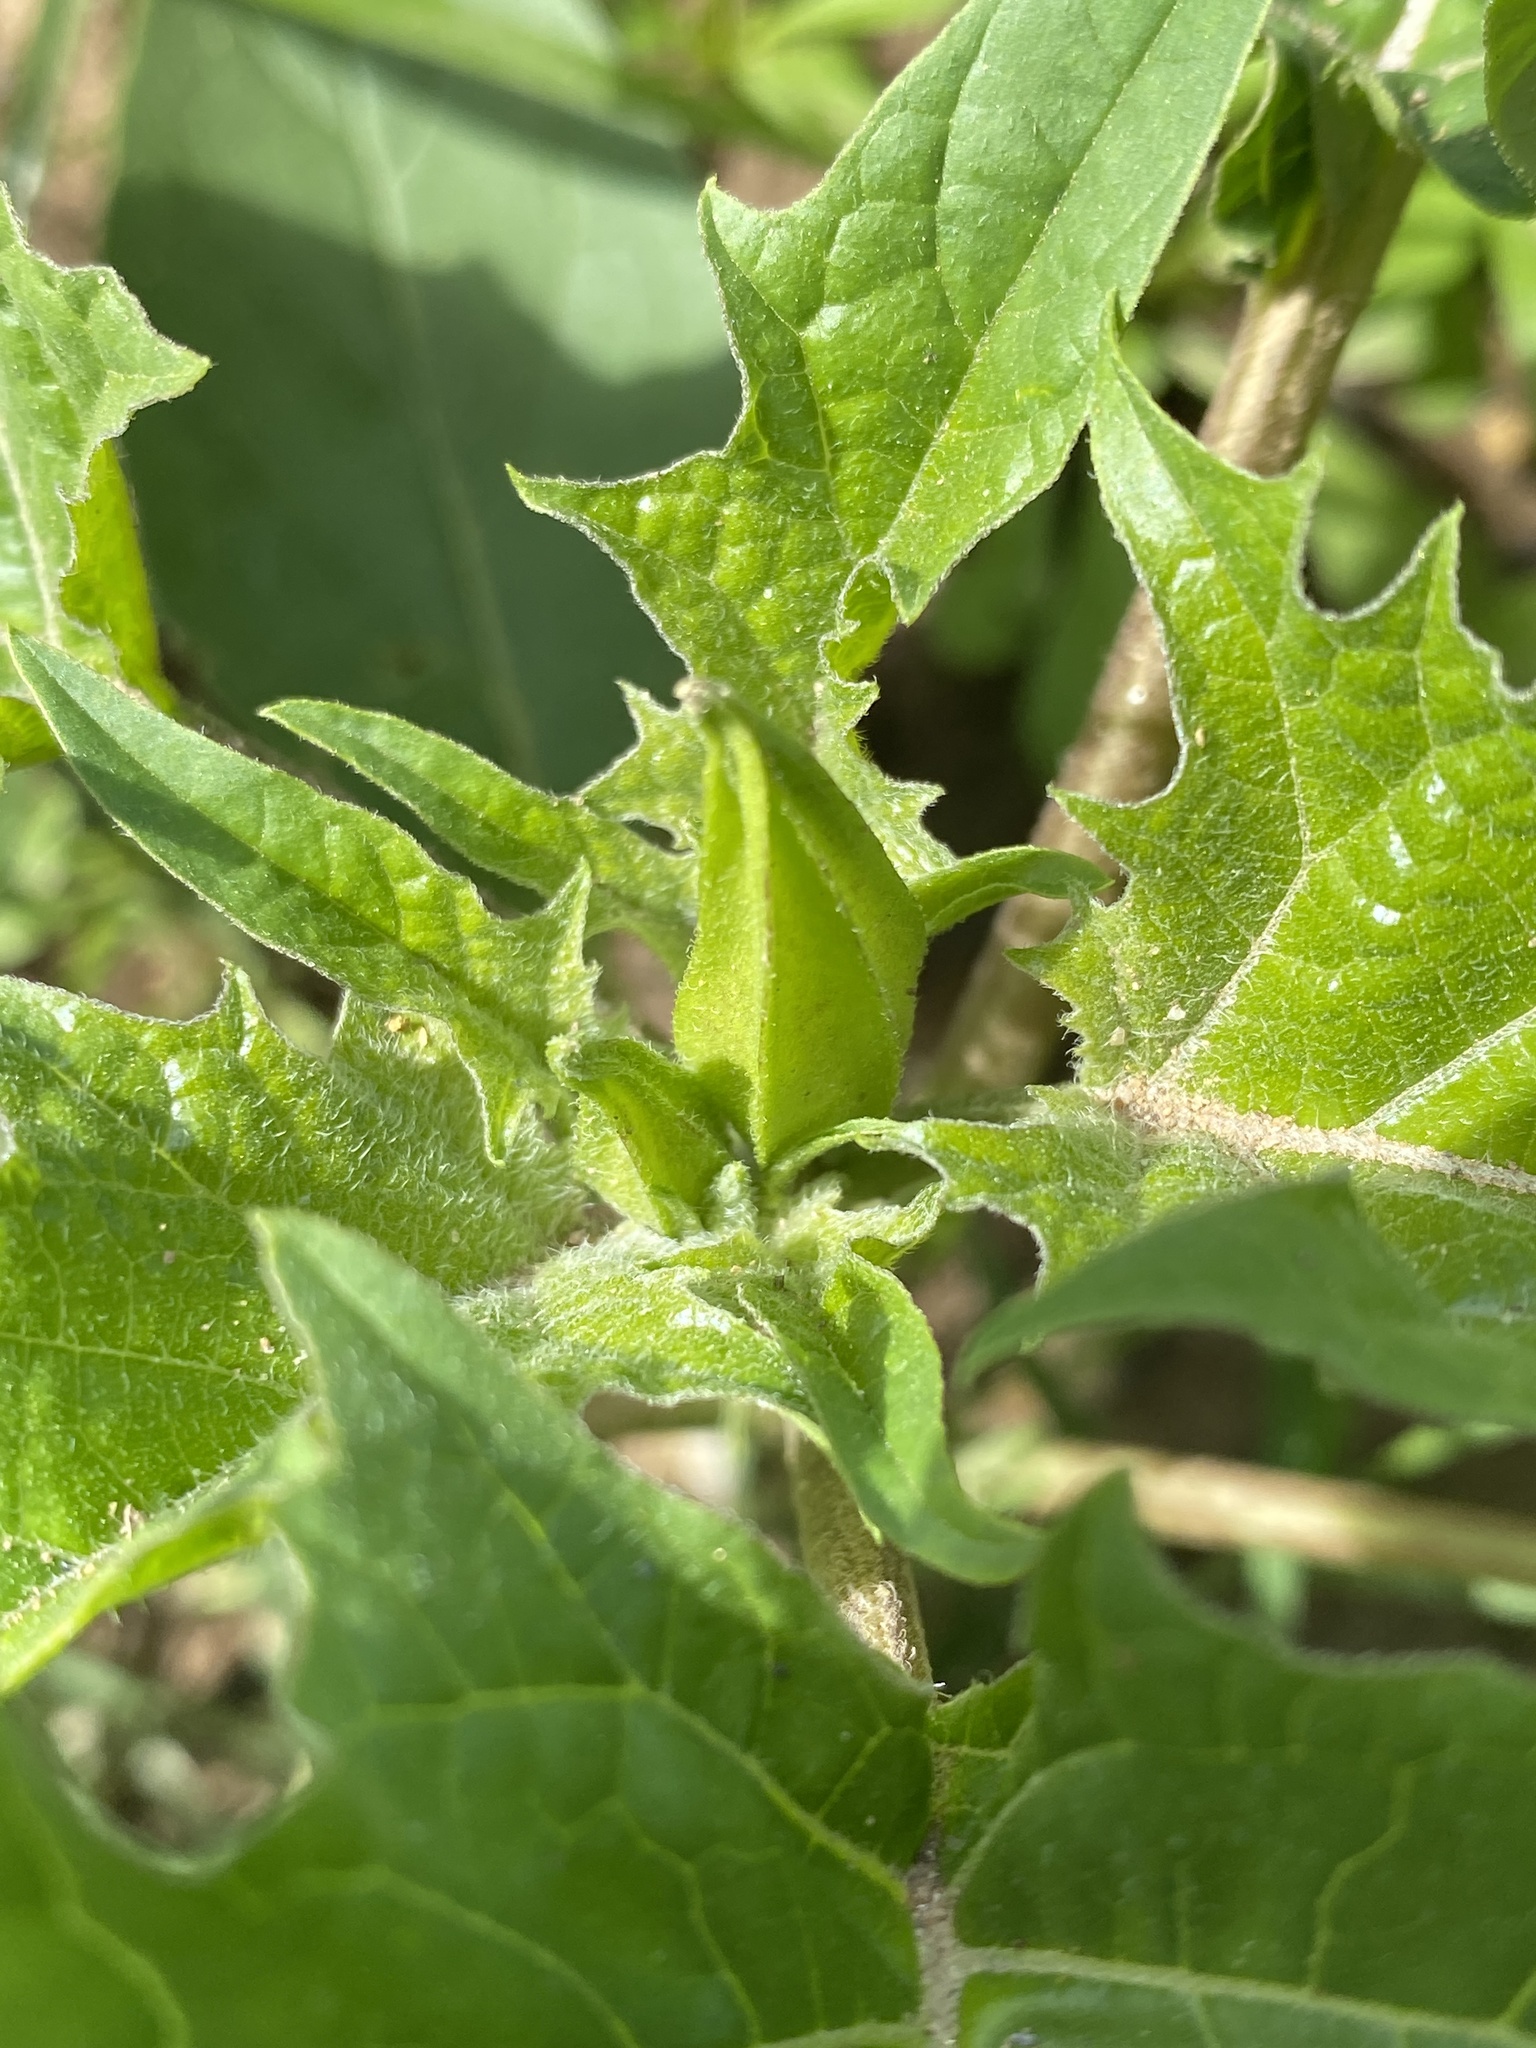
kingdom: Plantae
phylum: Tracheophyta
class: Magnoliopsida
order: Solanales
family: Solanaceae
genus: Datura
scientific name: Datura stramonium
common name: Thorn-apple
